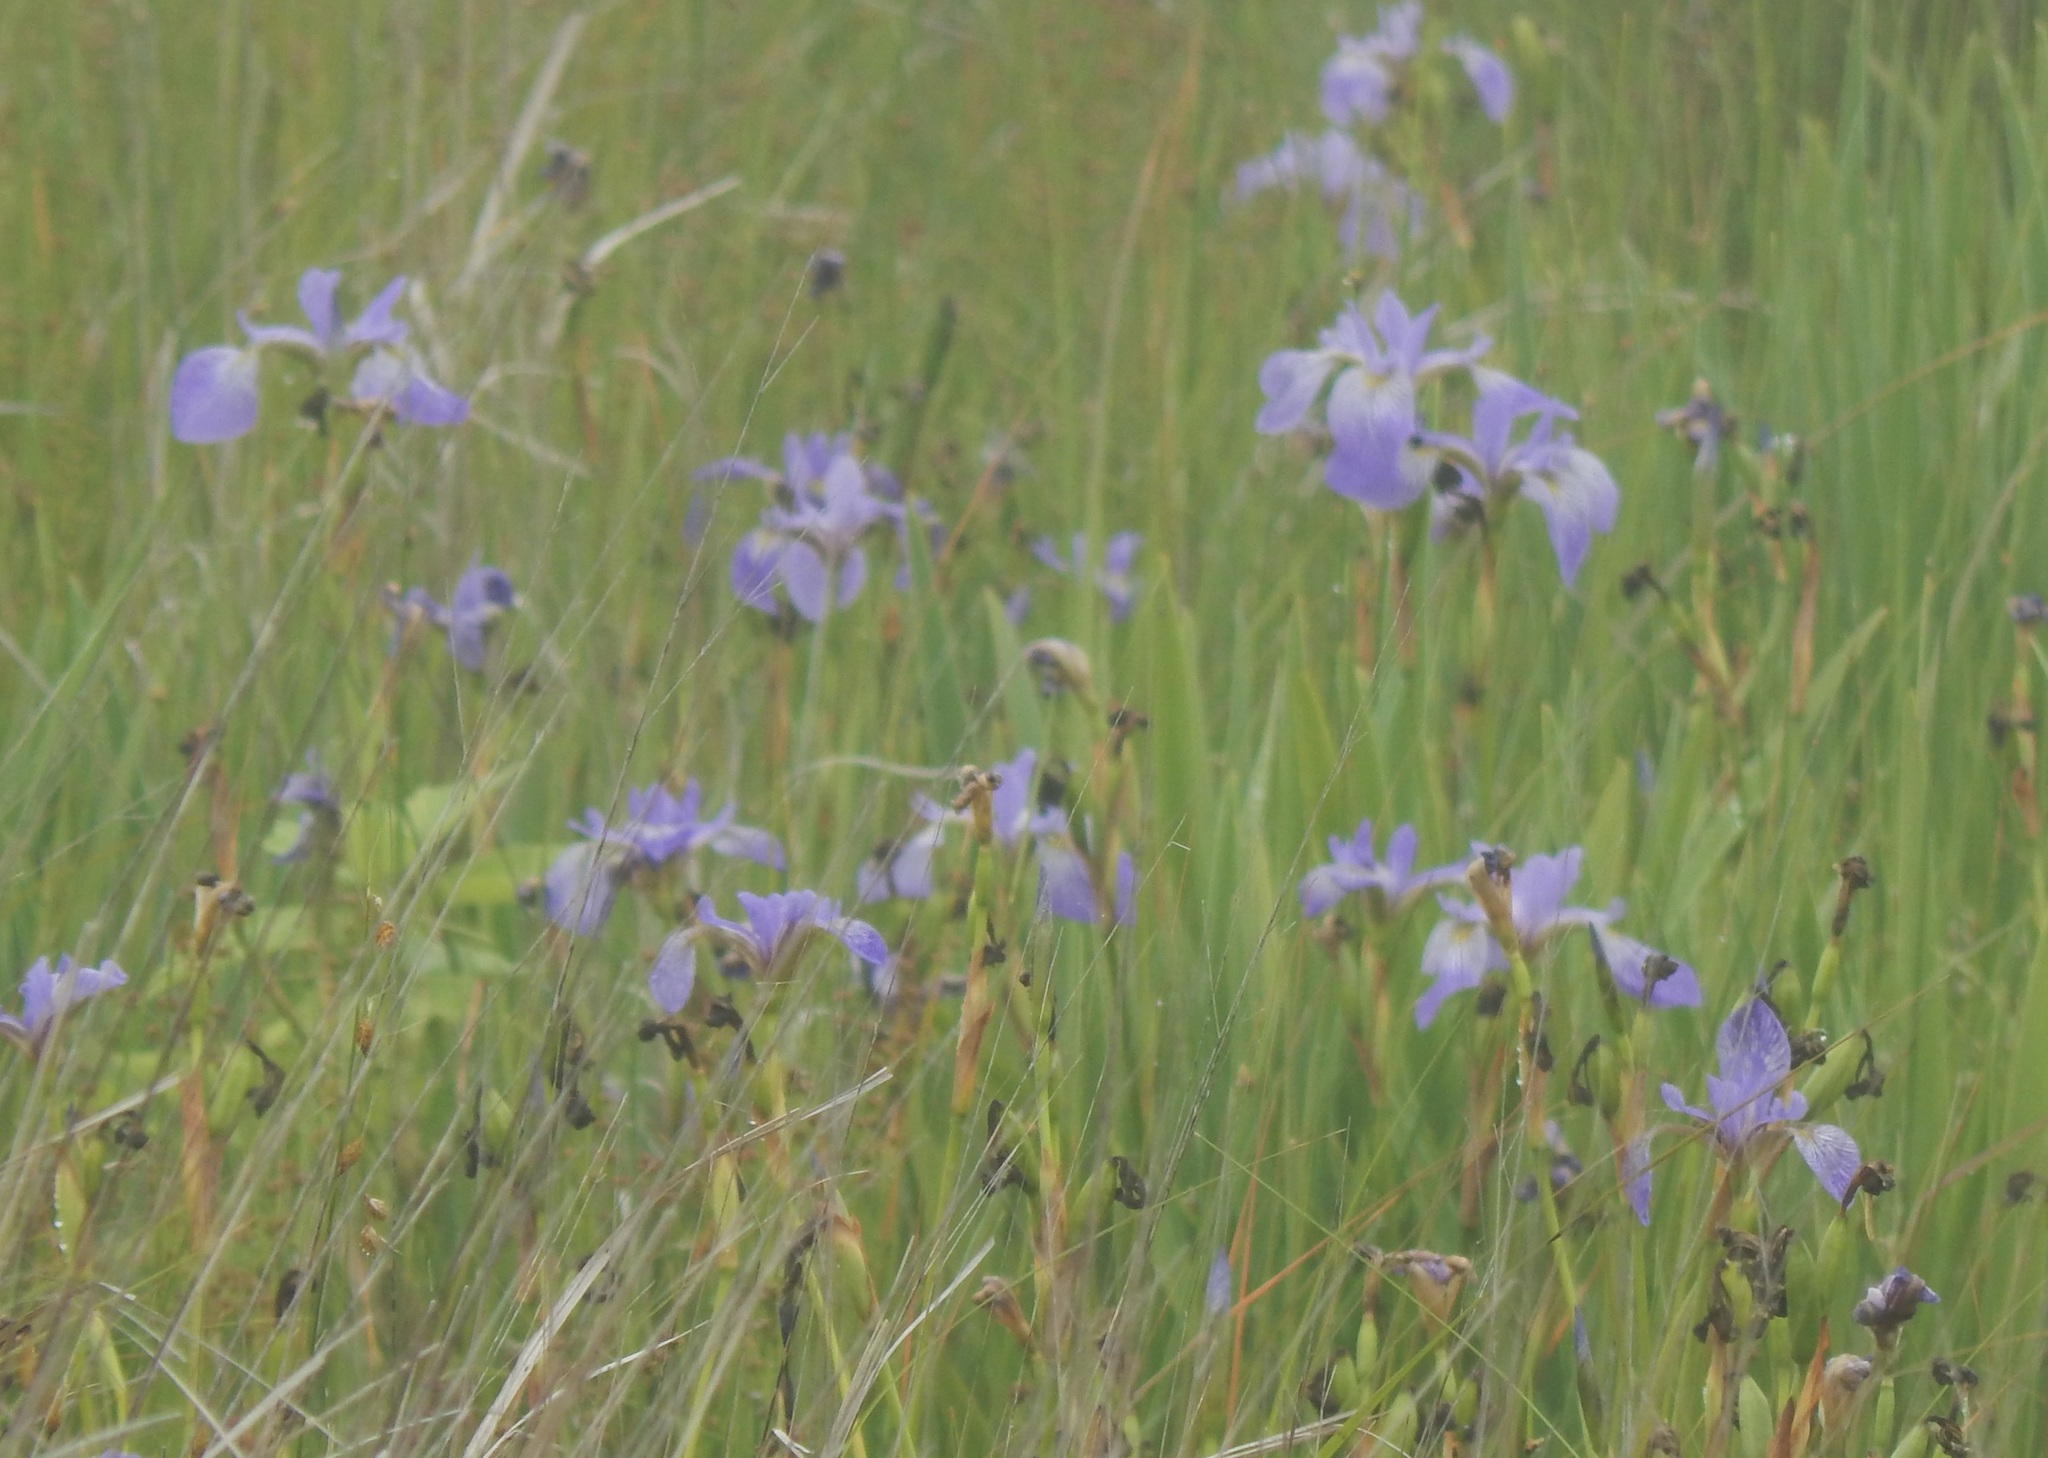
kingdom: Plantae
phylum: Tracheophyta
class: Liliopsida
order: Asparagales
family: Iridaceae
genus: Iris
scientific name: Iris versicolor
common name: Purple iris
